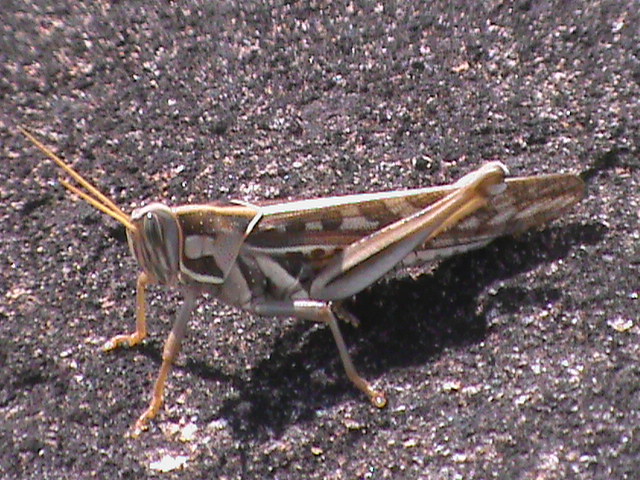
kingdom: Animalia
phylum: Arthropoda
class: Insecta
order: Orthoptera
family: Acrididae
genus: Cyrtacanthacris
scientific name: Cyrtacanthacris tatarica
